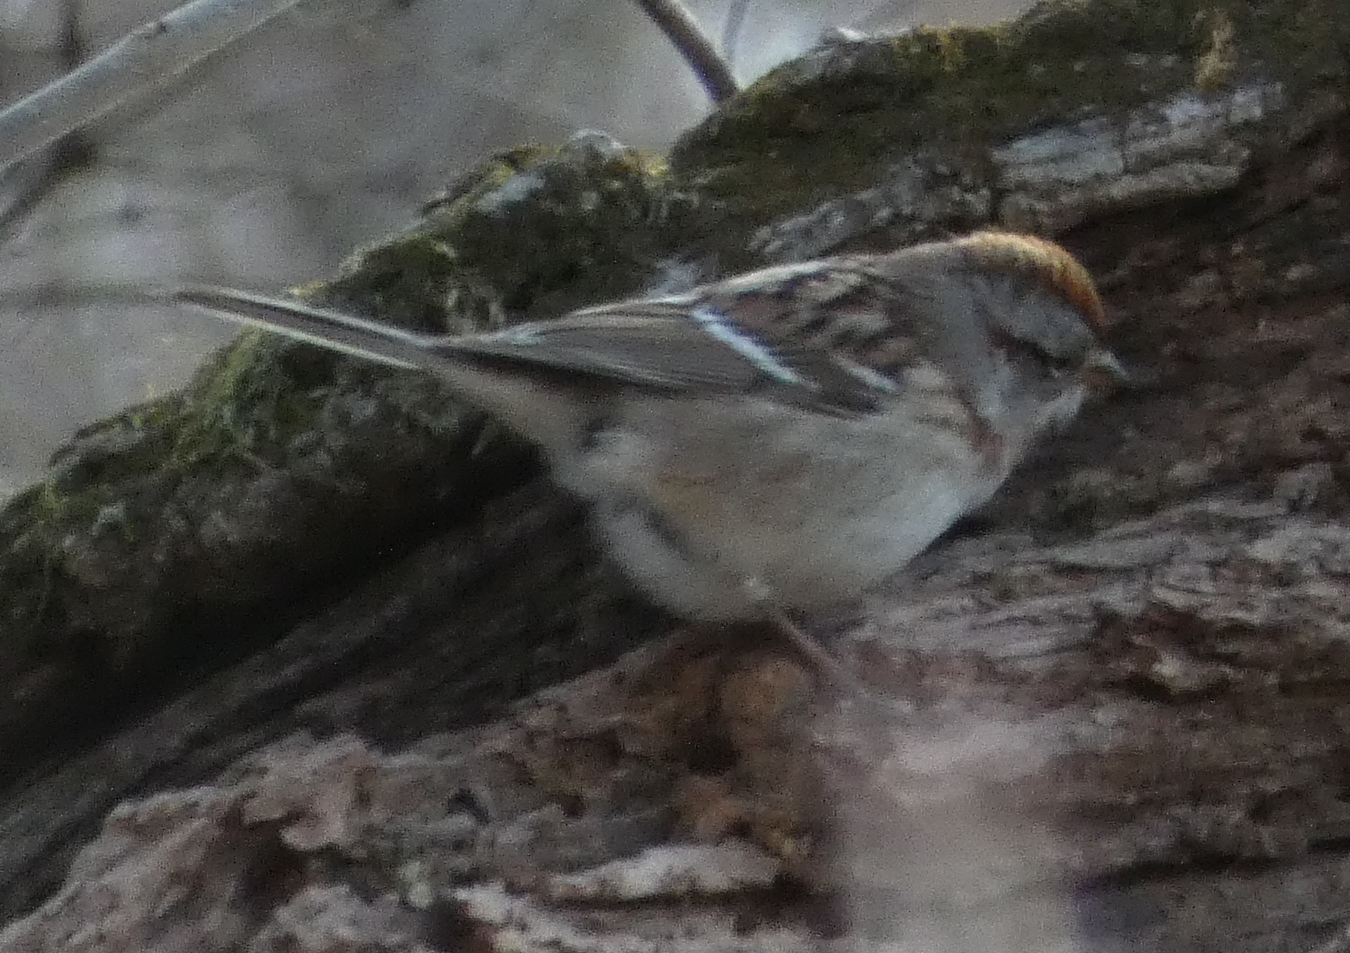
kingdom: Animalia
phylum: Chordata
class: Aves
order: Passeriformes
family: Passerellidae
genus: Spizelloides
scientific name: Spizelloides arborea
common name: American tree sparrow
